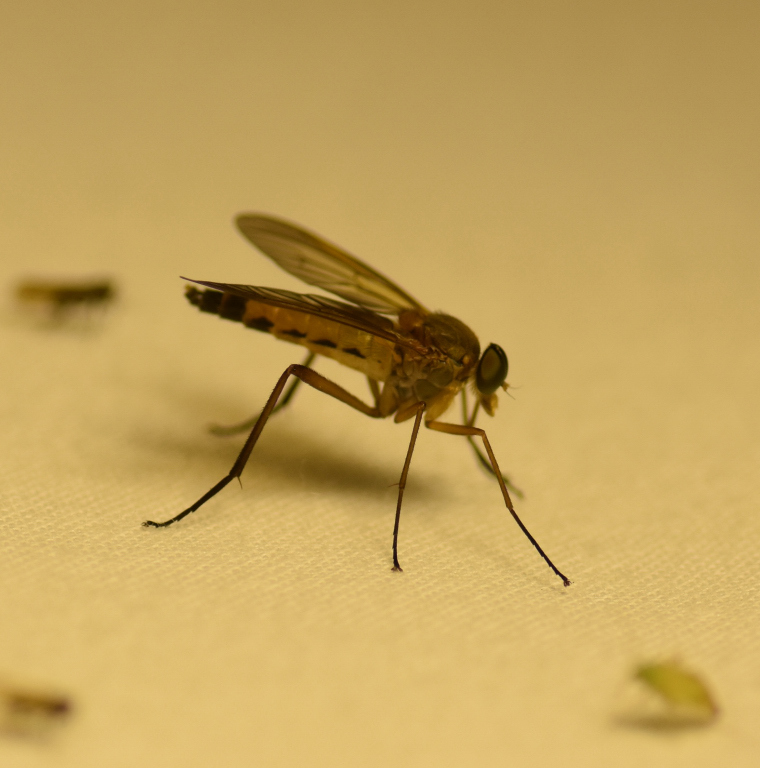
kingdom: Animalia
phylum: Arthropoda
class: Insecta
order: Diptera
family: Rhagionidae
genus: Rhagio
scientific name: Rhagio tringaria
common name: Marsh snipefly
